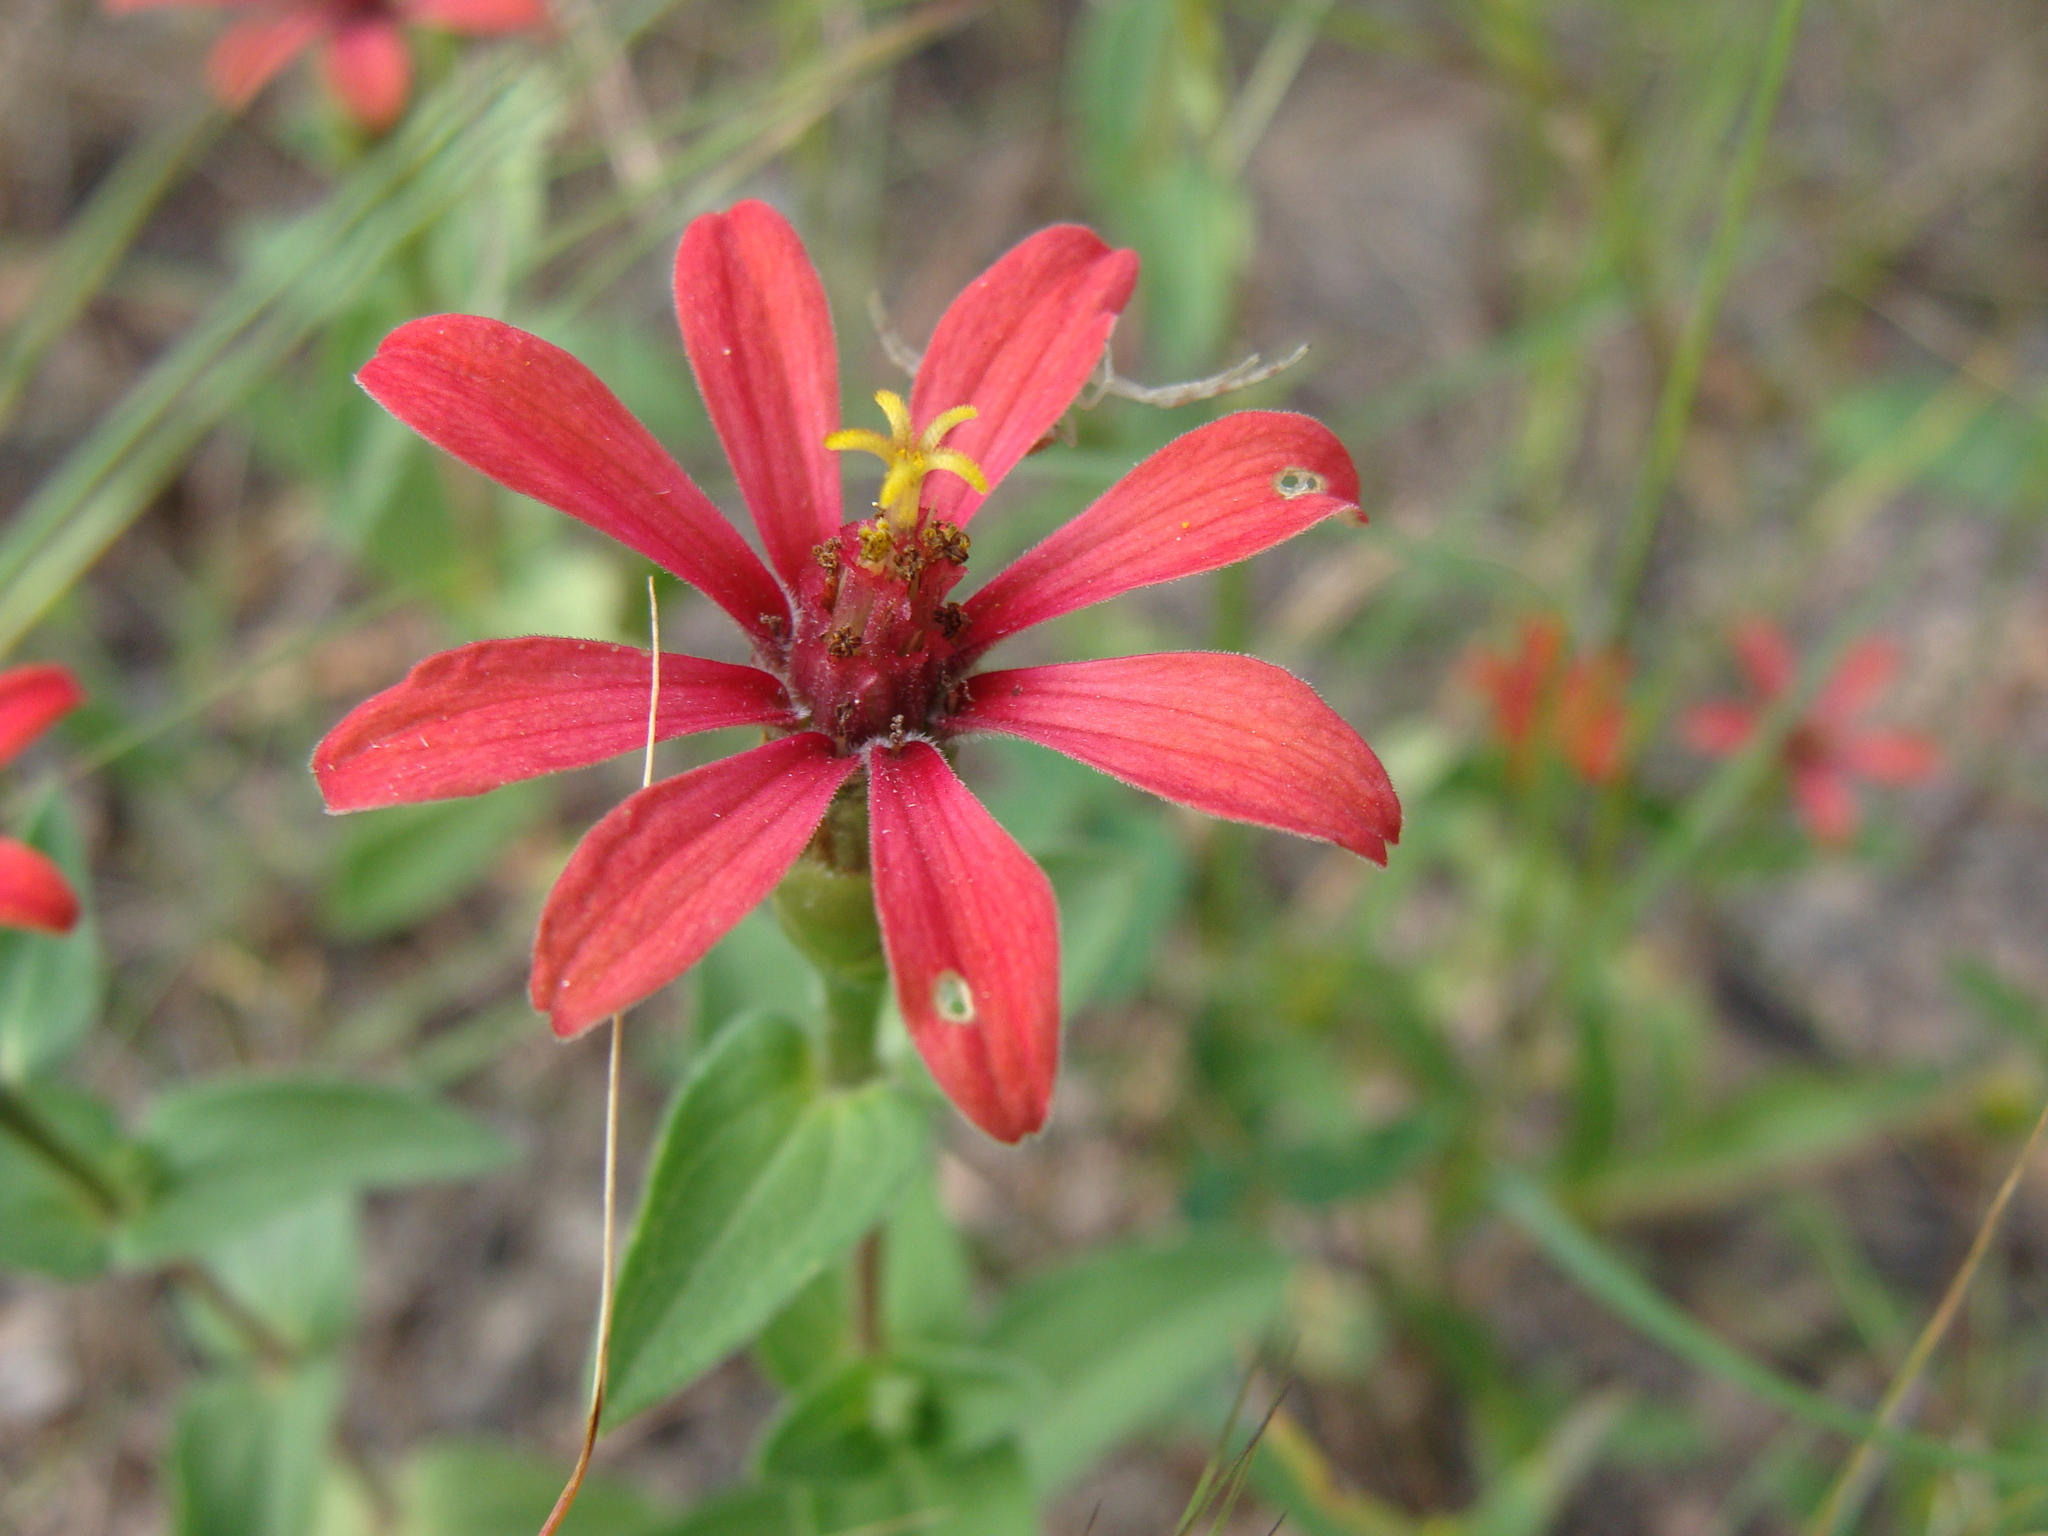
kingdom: Plantae
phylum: Tracheophyta
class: Magnoliopsida
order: Asterales
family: Asteraceae
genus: Zinnia
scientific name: Zinnia peruviana
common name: Peruvian zinnia
